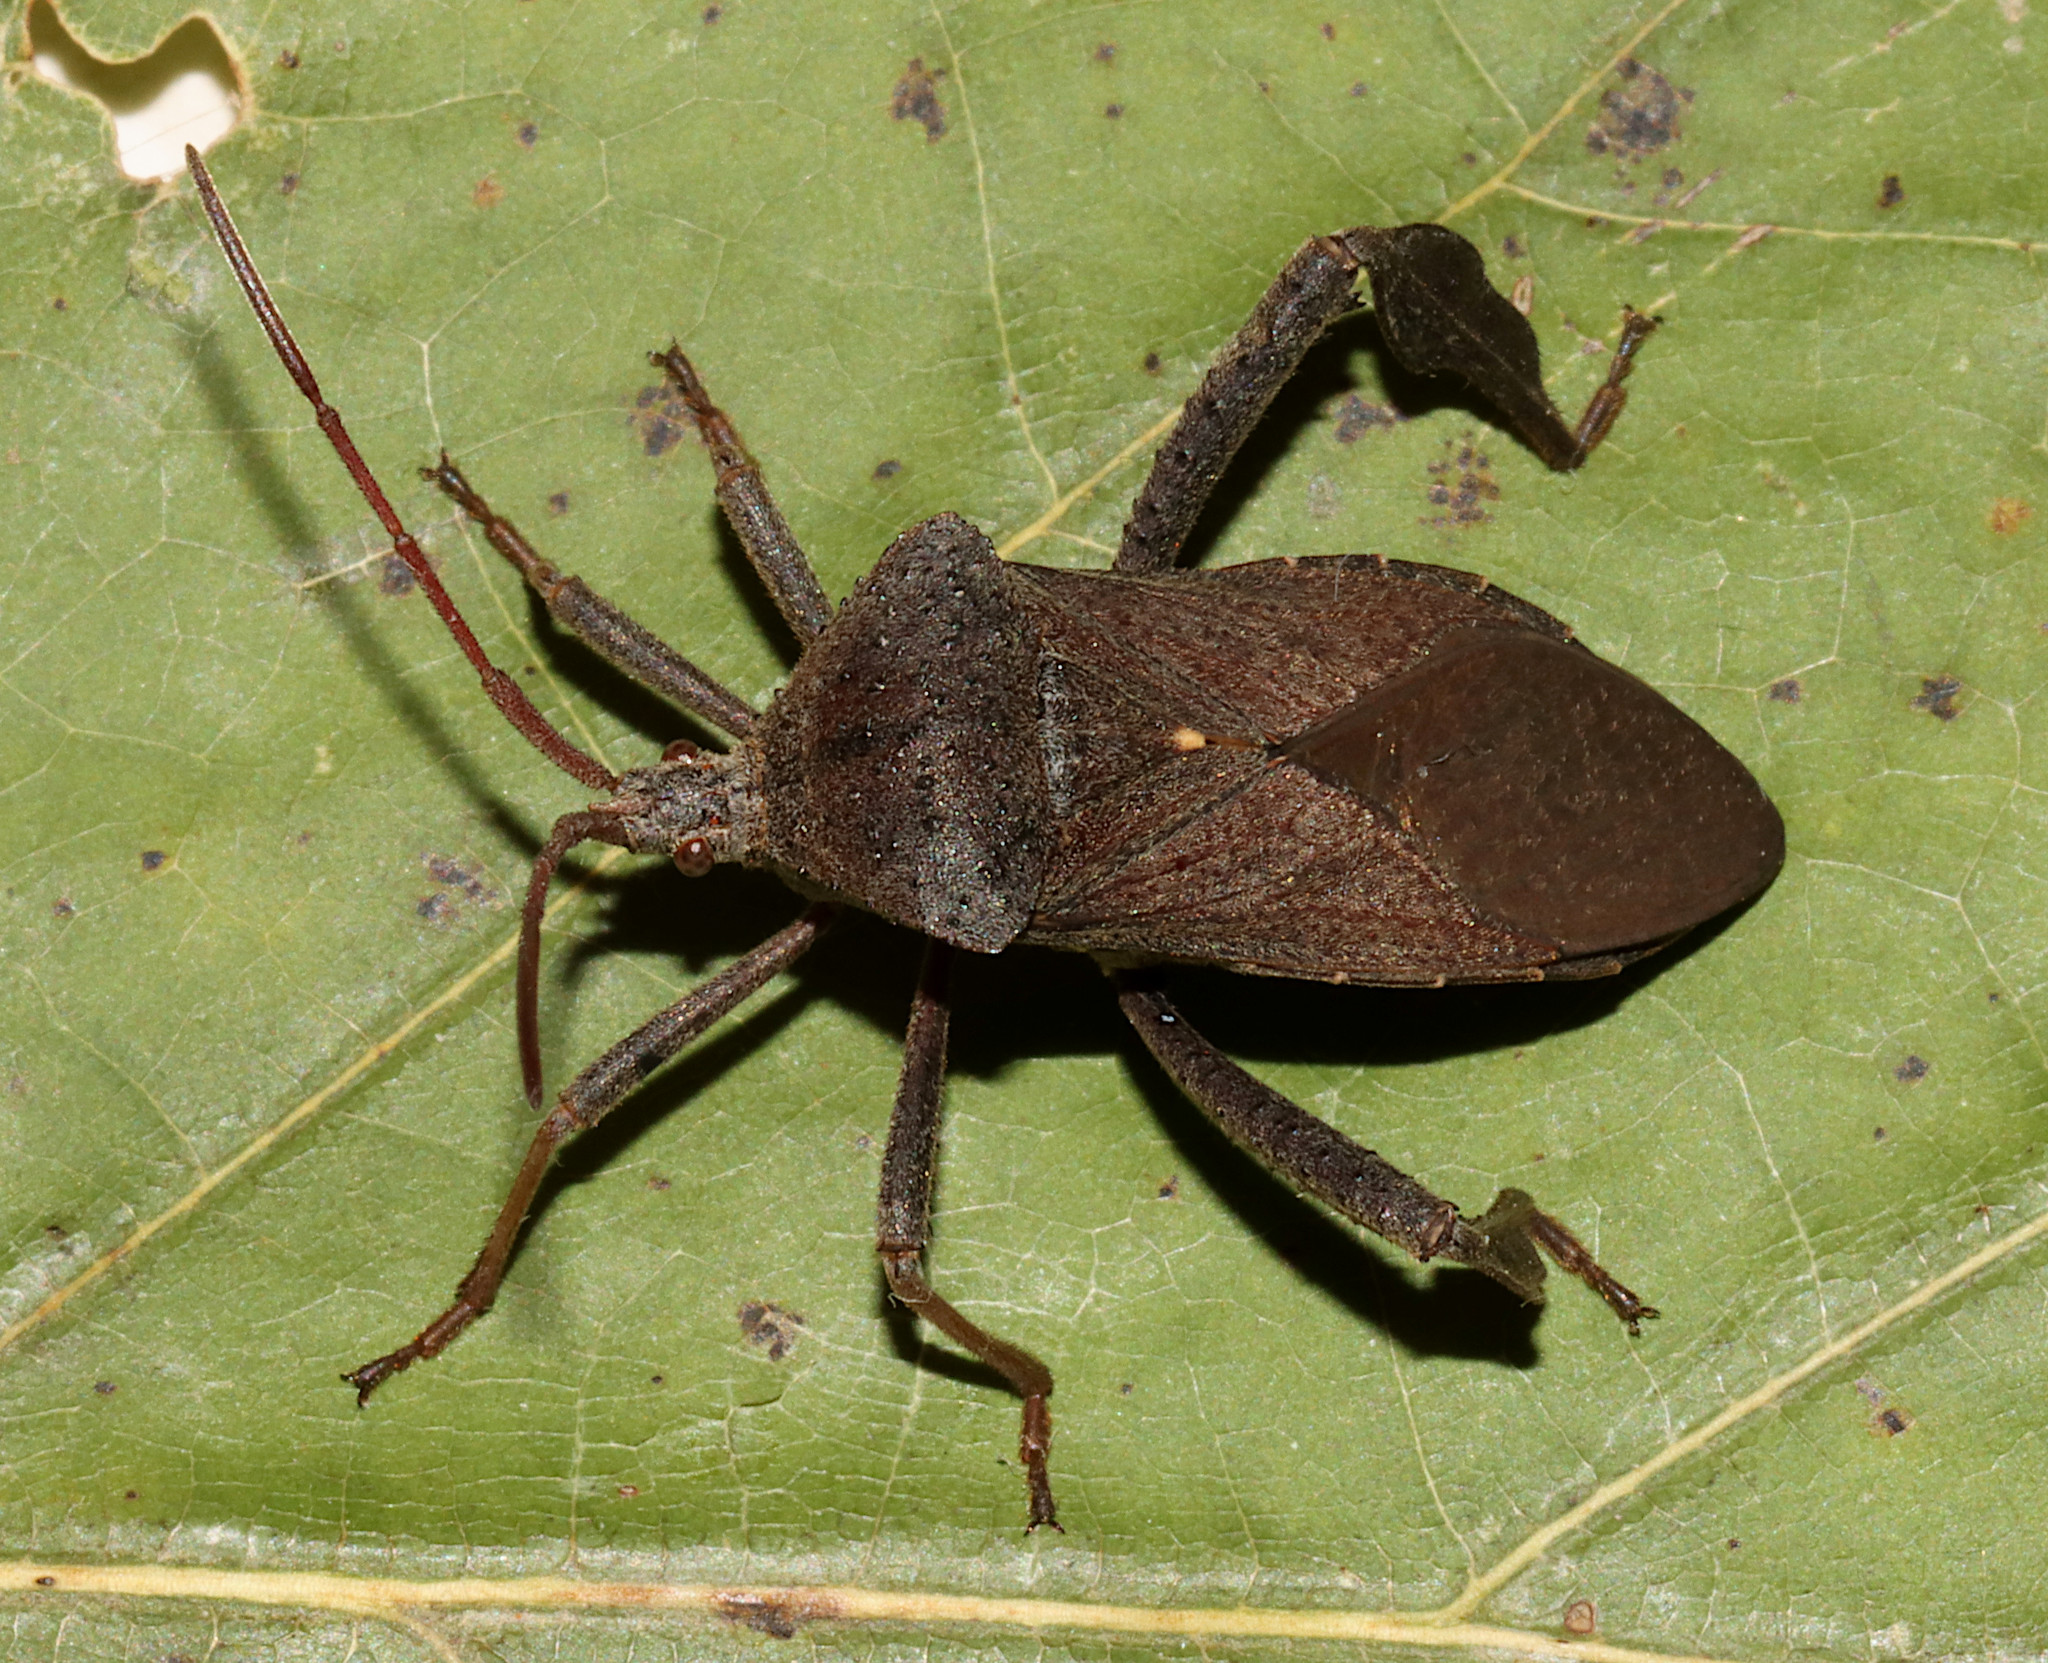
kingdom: Animalia
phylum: Arthropoda
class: Insecta
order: Hemiptera
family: Coreidae
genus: Acanthocephala
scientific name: Acanthocephala femorata
